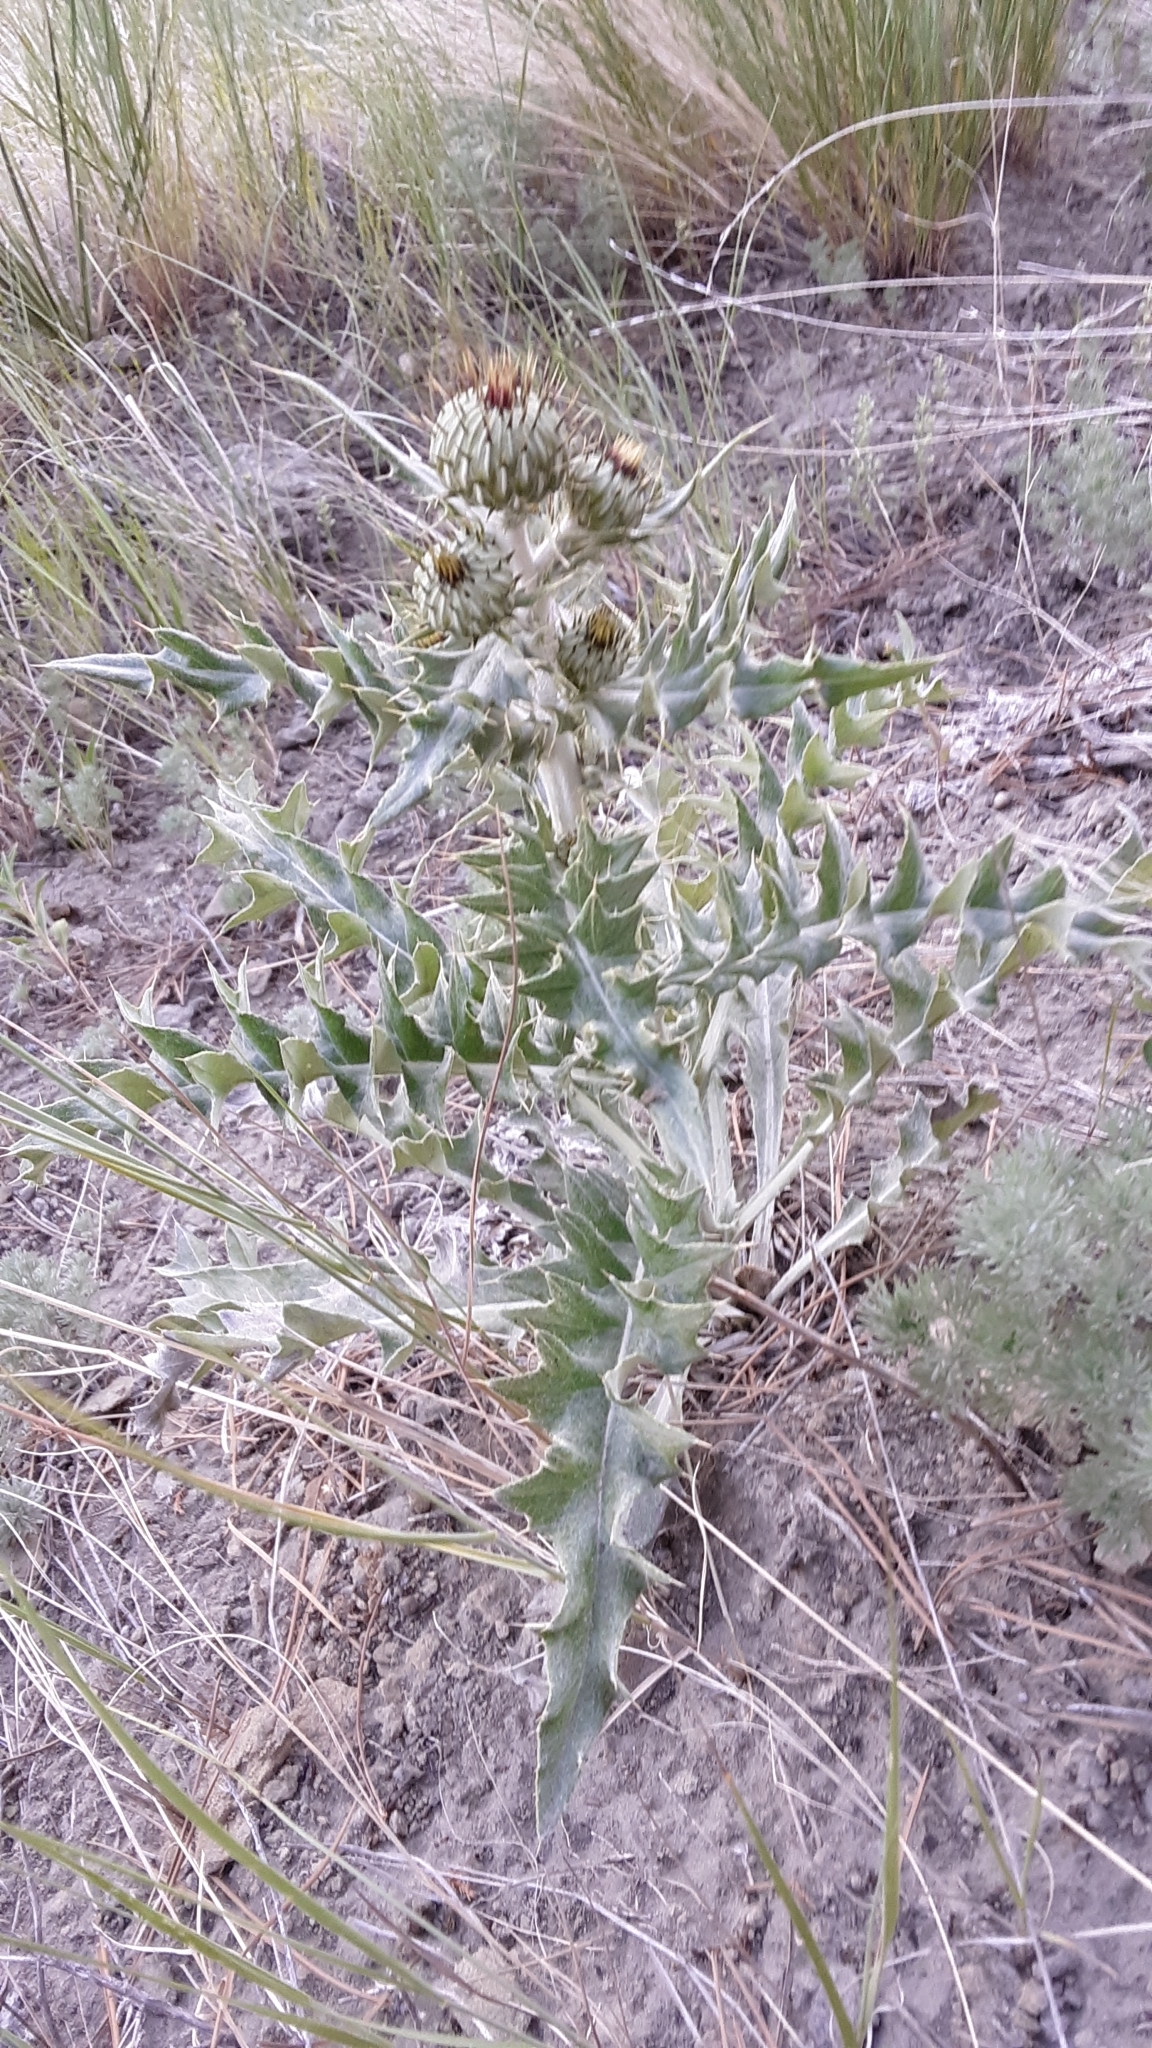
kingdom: Plantae
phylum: Tracheophyta
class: Magnoliopsida
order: Asterales
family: Asteraceae
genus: Cirsium
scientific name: Cirsium undulatum
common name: Pasture thistle
